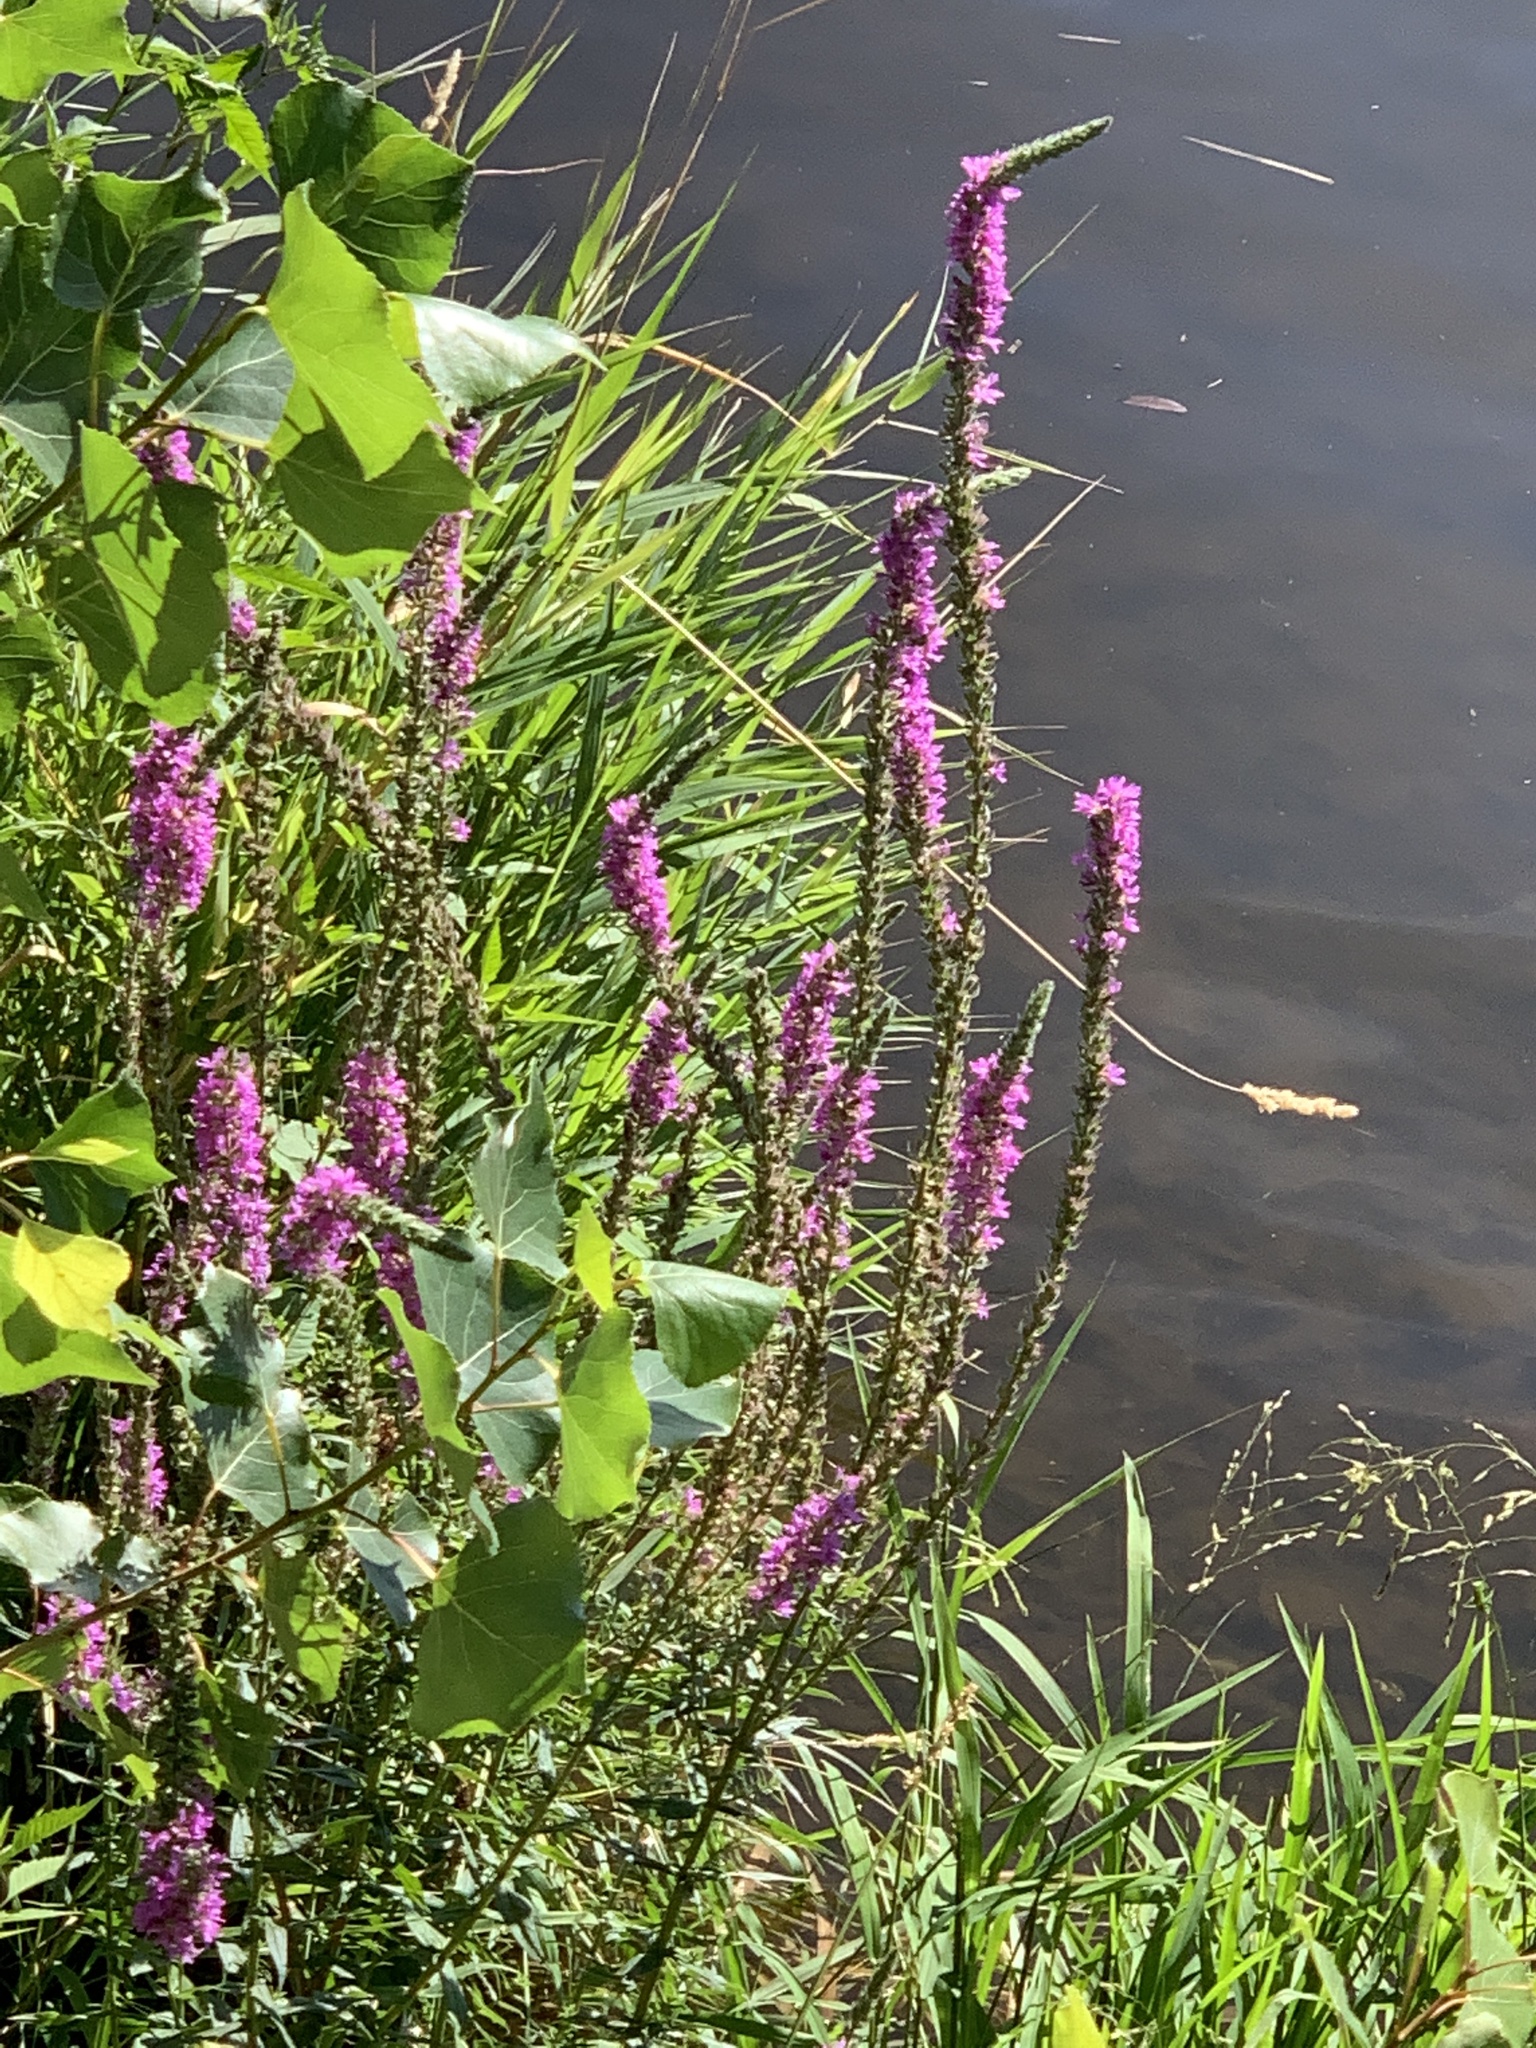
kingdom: Plantae
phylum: Tracheophyta
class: Magnoliopsida
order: Myrtales
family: Lythraceae
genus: Lythrum
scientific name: Lythrum salicaria
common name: Purple loosestrife
